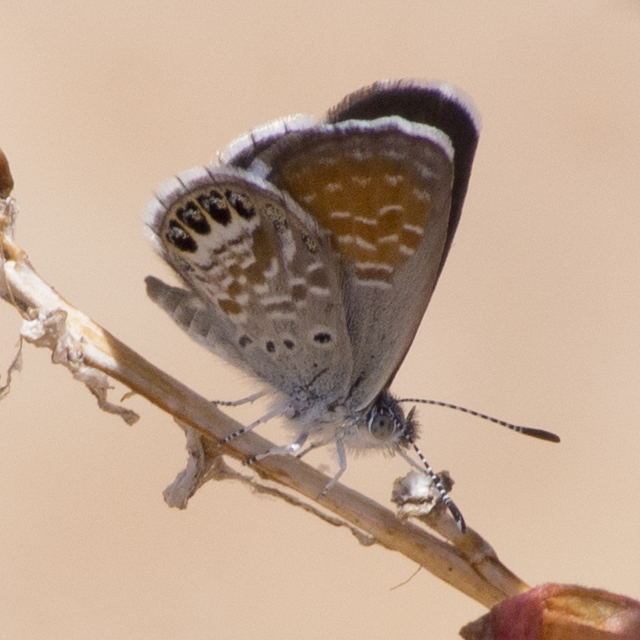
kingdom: Animalia
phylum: Arthropoda
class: Insecta
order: Lepidoptera
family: Lycaenidae
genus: Brephidium
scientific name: Brephidium exilis
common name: Pygmy blue
